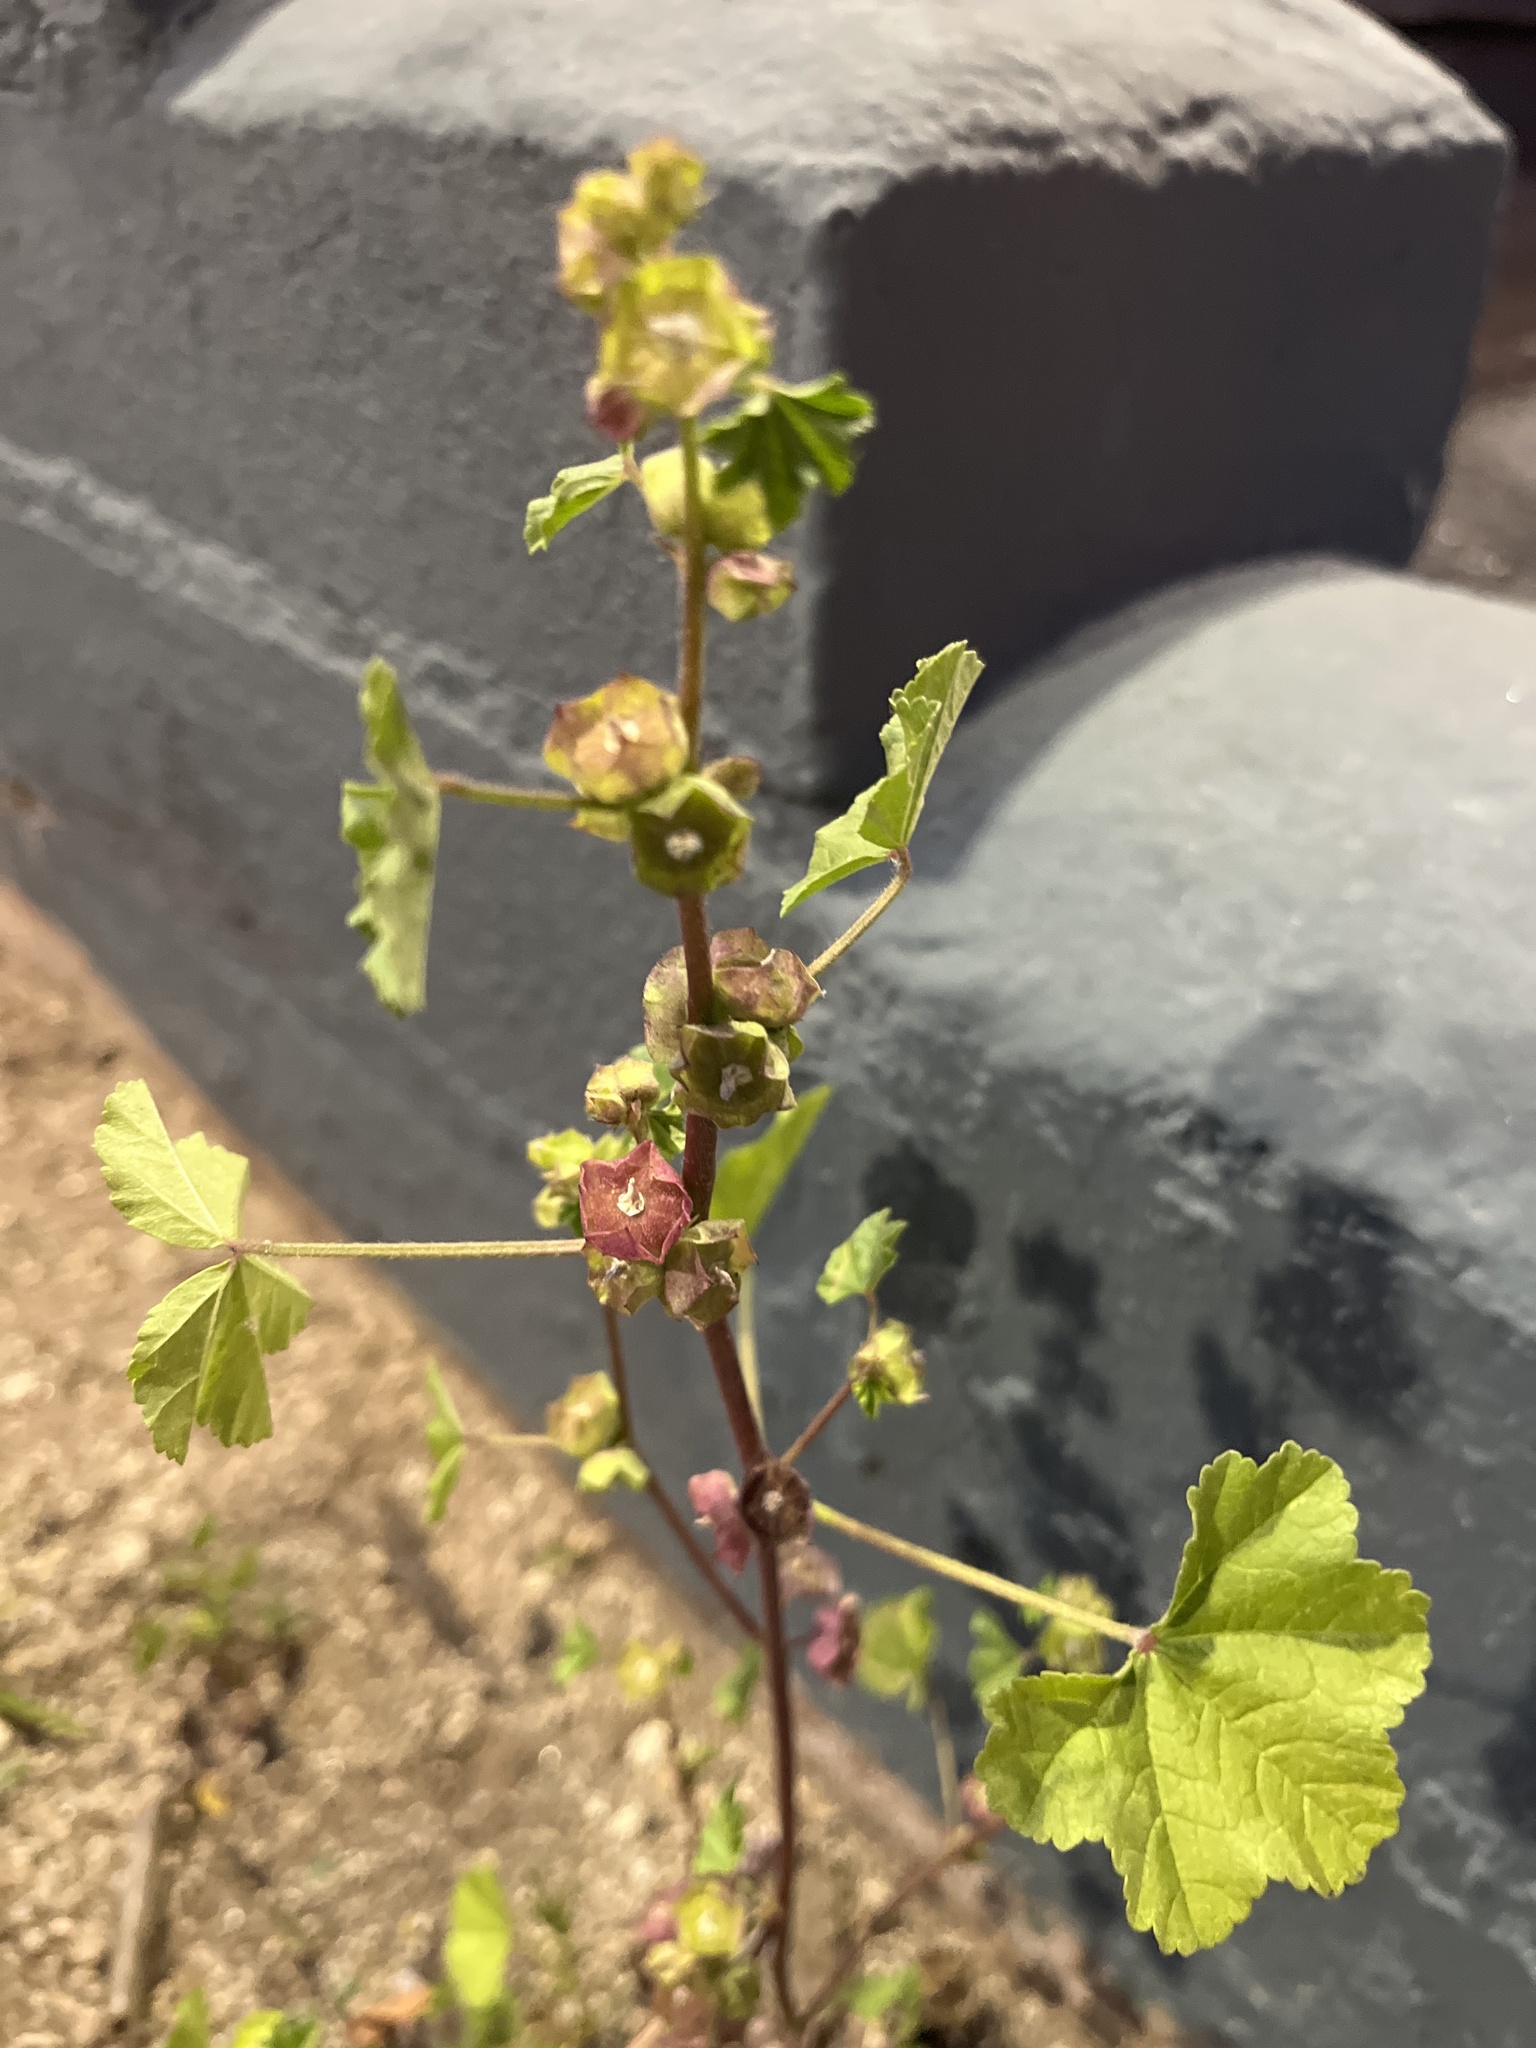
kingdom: Plantae
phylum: Tracheophyta
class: Magnoliopsida
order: Malvales
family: Malvaceae
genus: Malva
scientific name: Malva parviflora
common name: Least mallow
